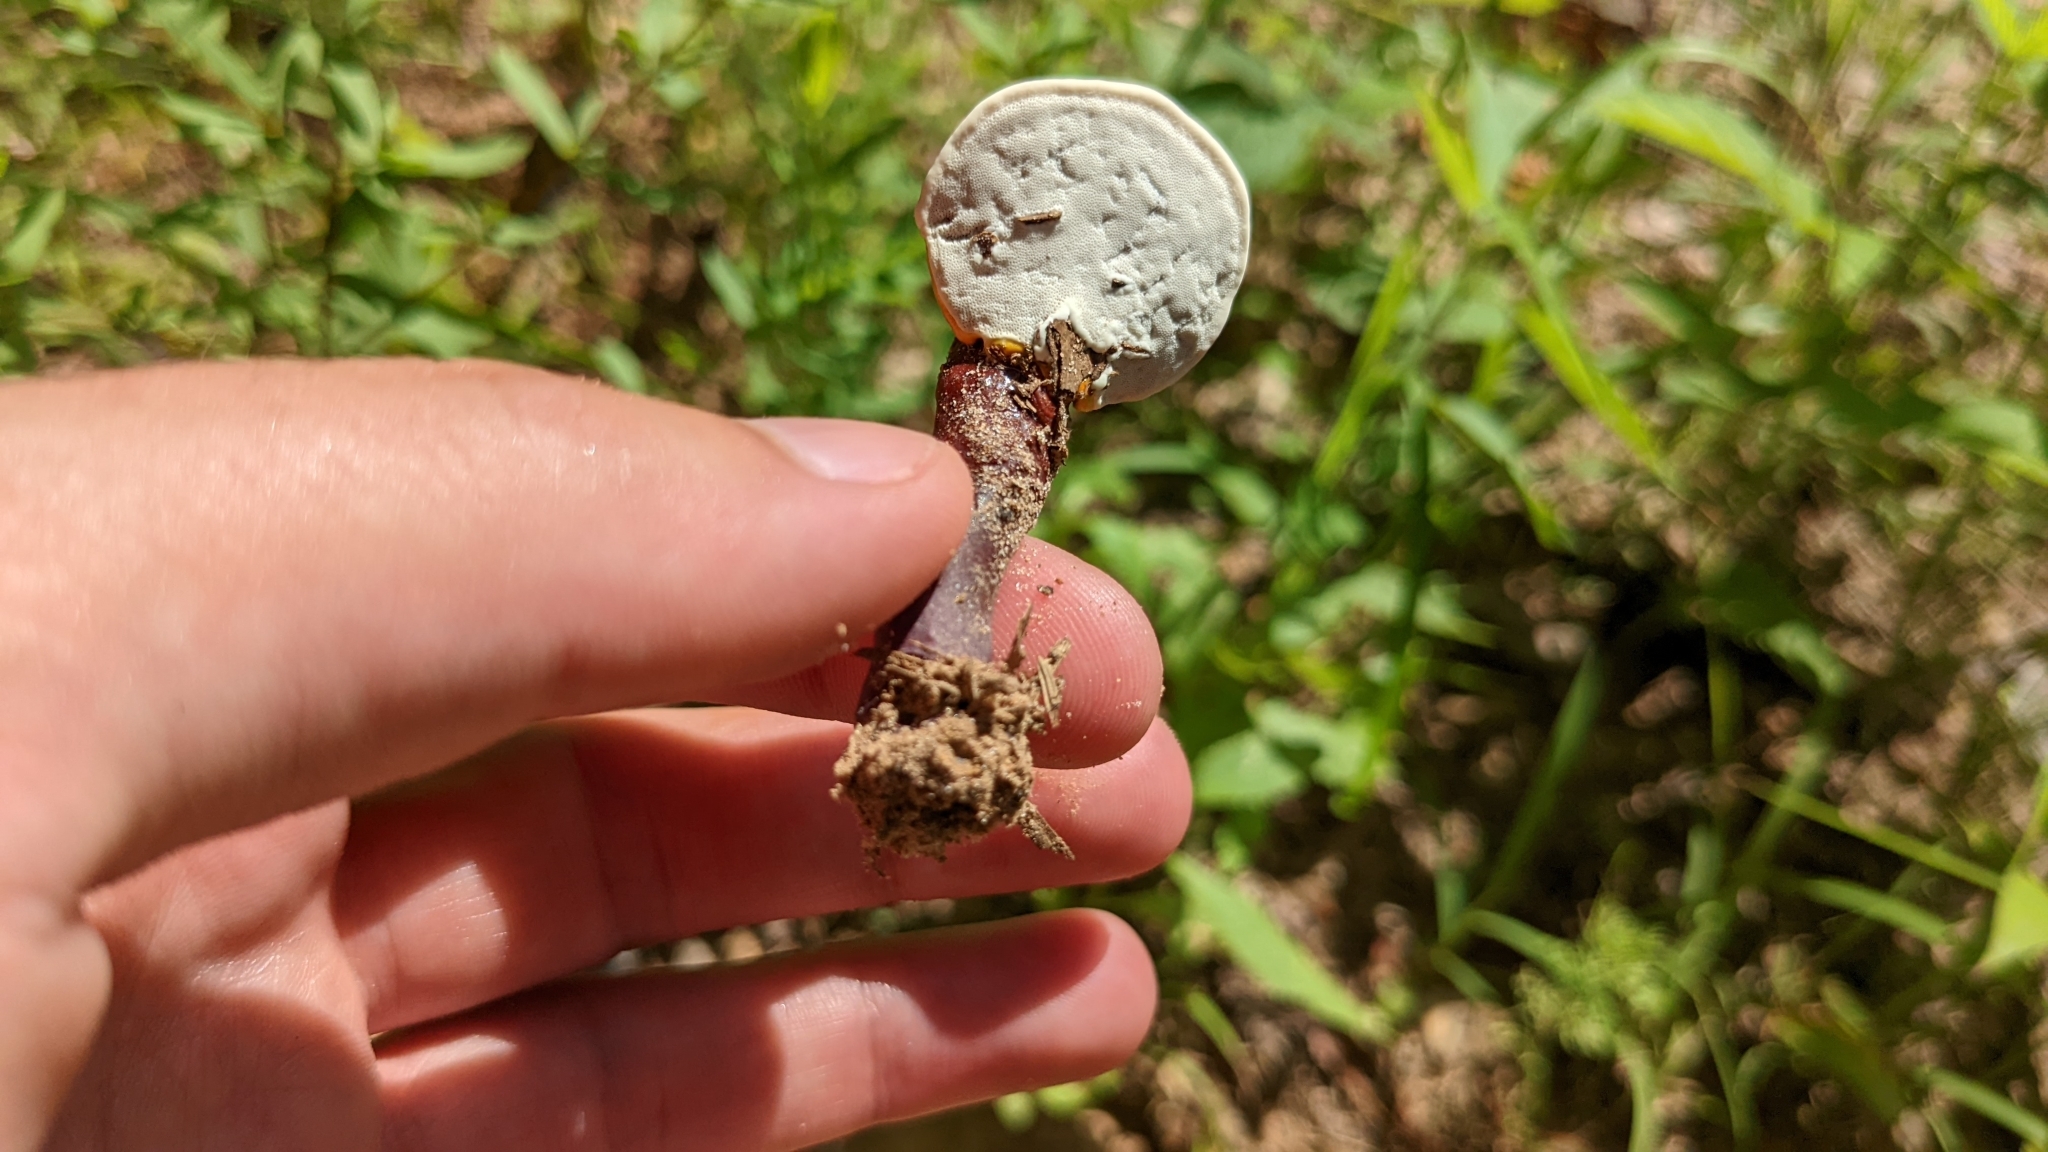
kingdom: Fungi
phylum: Basidiomycota
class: Agaricomycetes
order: Polyporales
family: Polyporaceae
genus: Ganoderma
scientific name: Ganoderma curtisii
